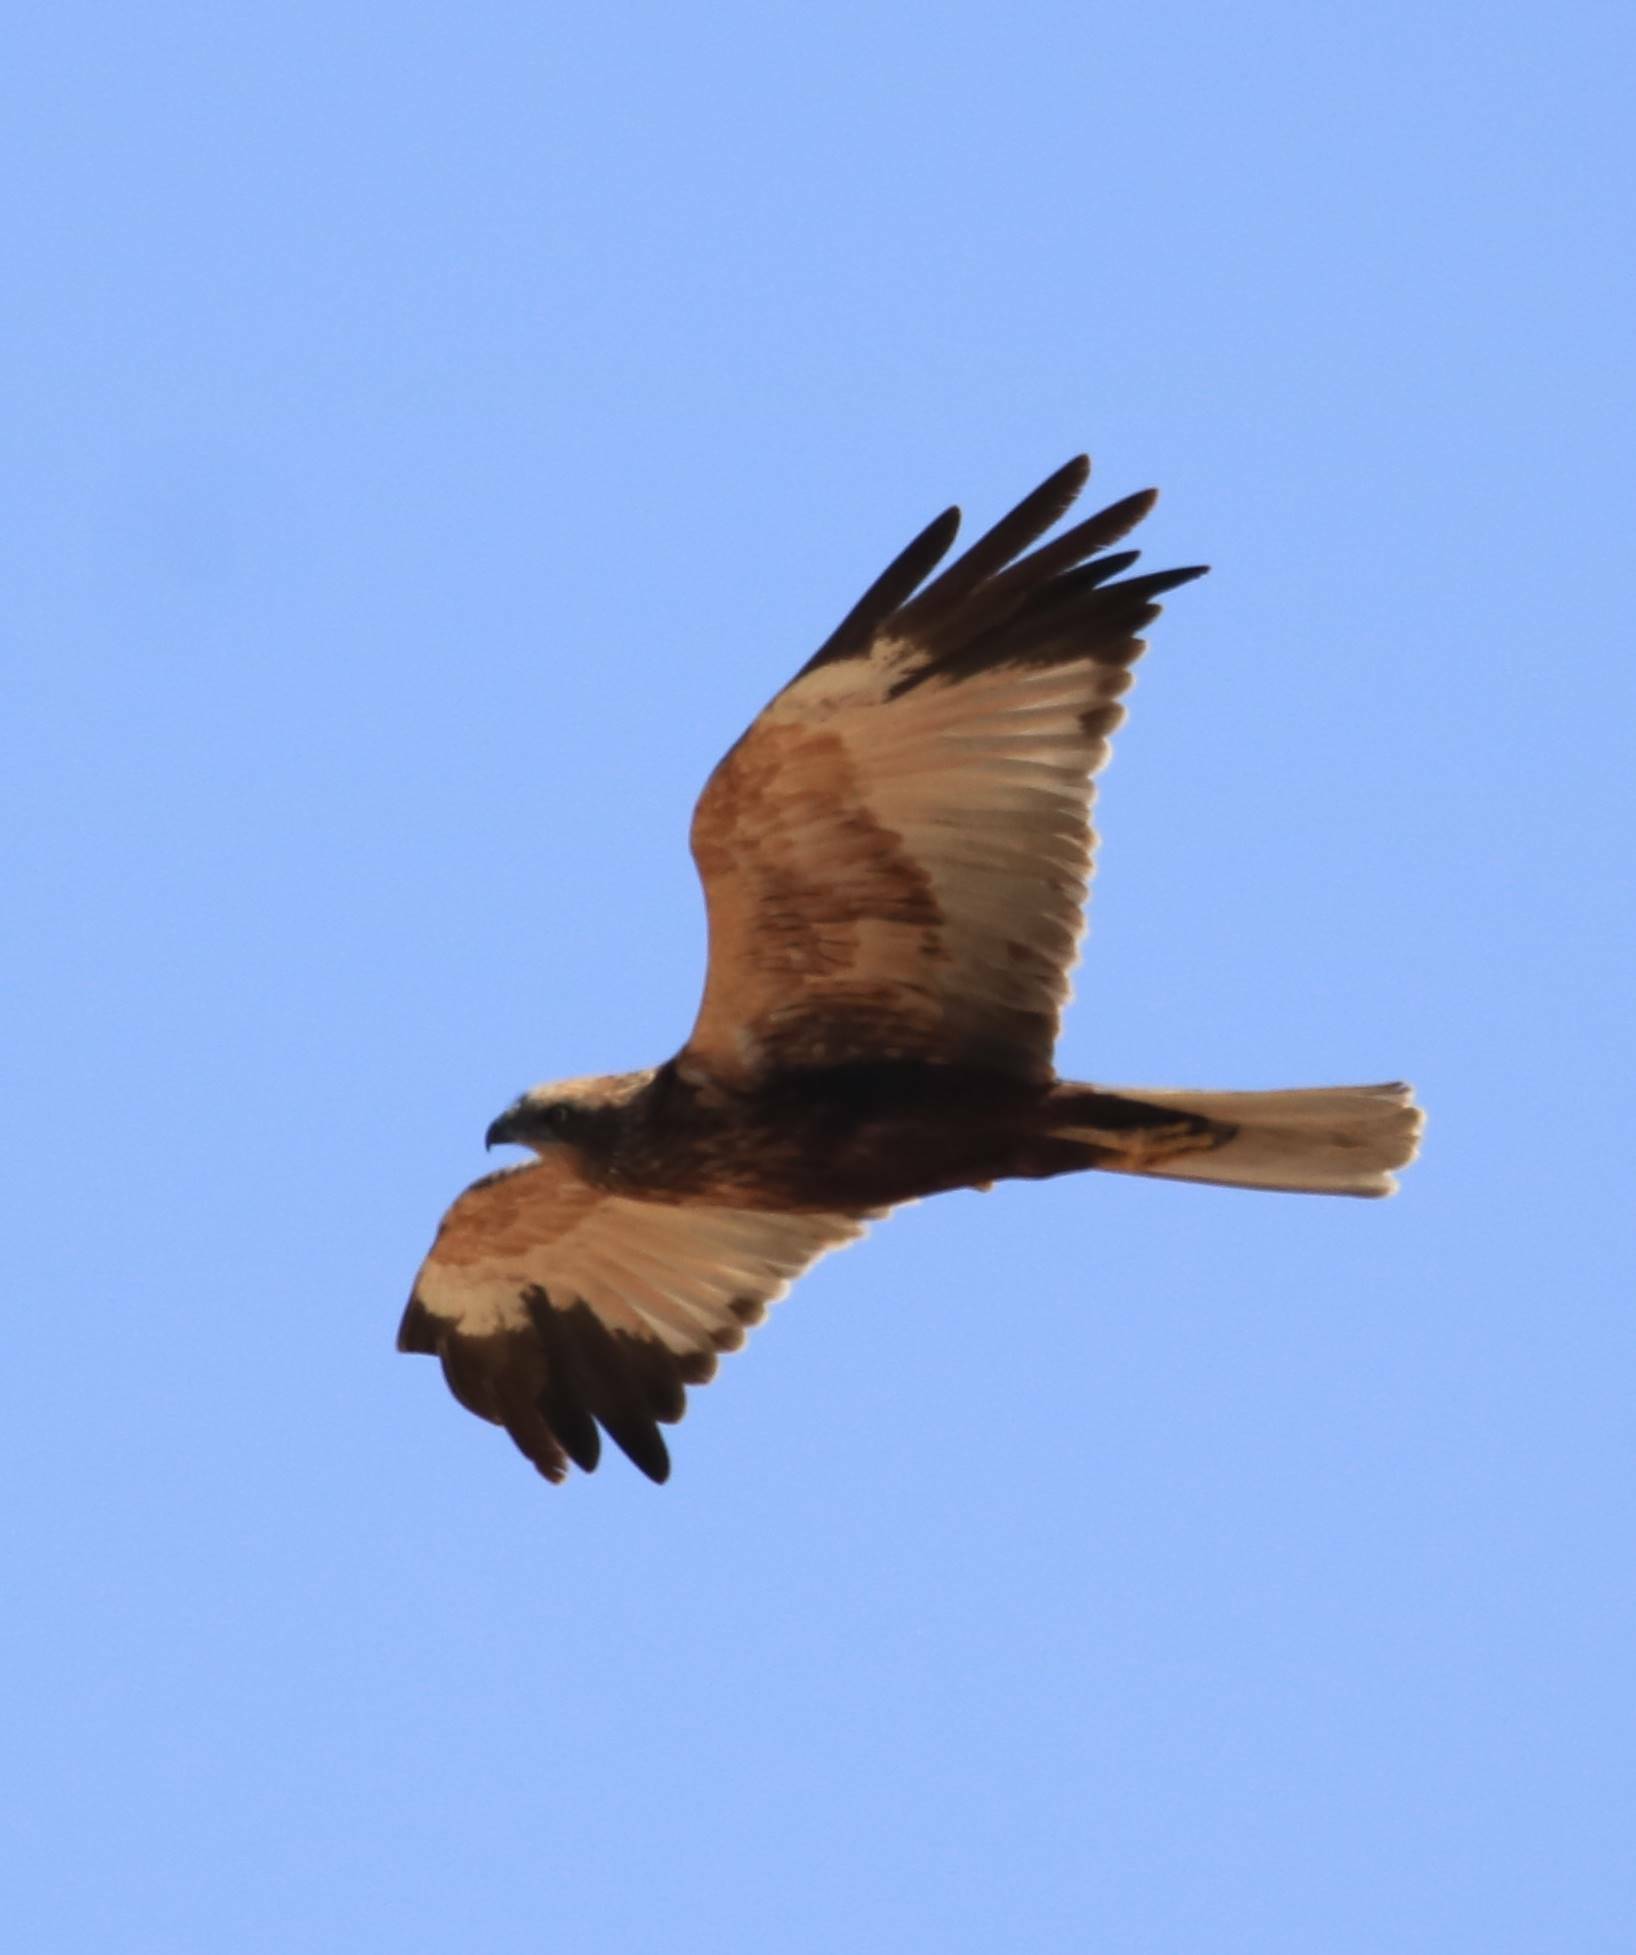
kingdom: Animalia
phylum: Chordata
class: Aves
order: Accipitriformes
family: Accipitridae
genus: Circus
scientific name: Circus aeruginosus
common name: Western marsh harrier
